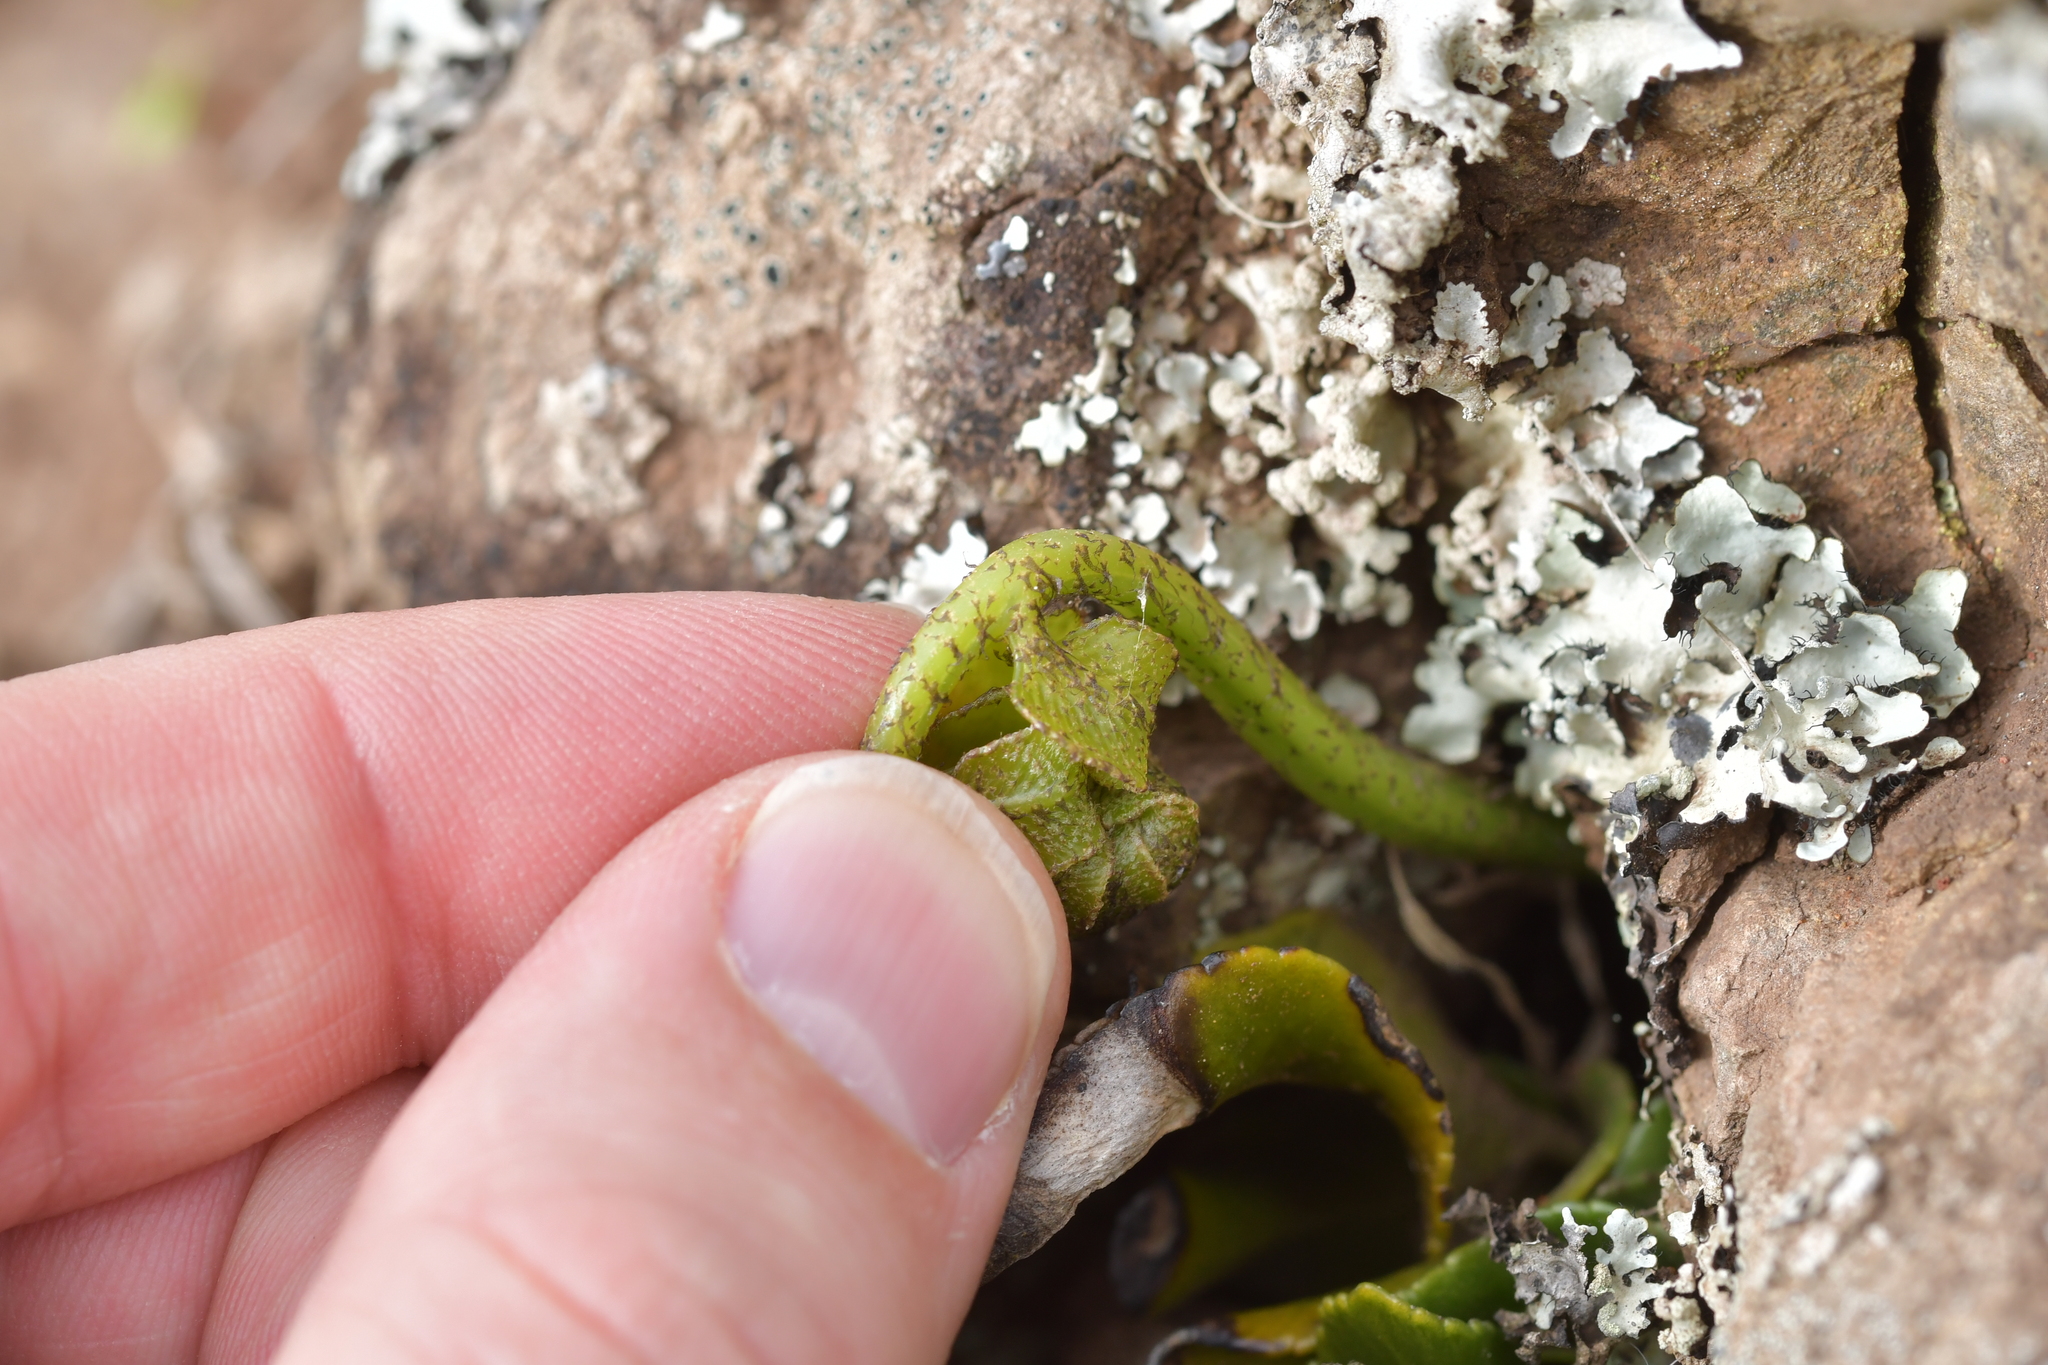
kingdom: Plantae
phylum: Tracheophyta
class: Polypodiopsida
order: Polypodiales
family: Aspleniaceae
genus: Asplenium
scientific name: Asplenium obtusatum
